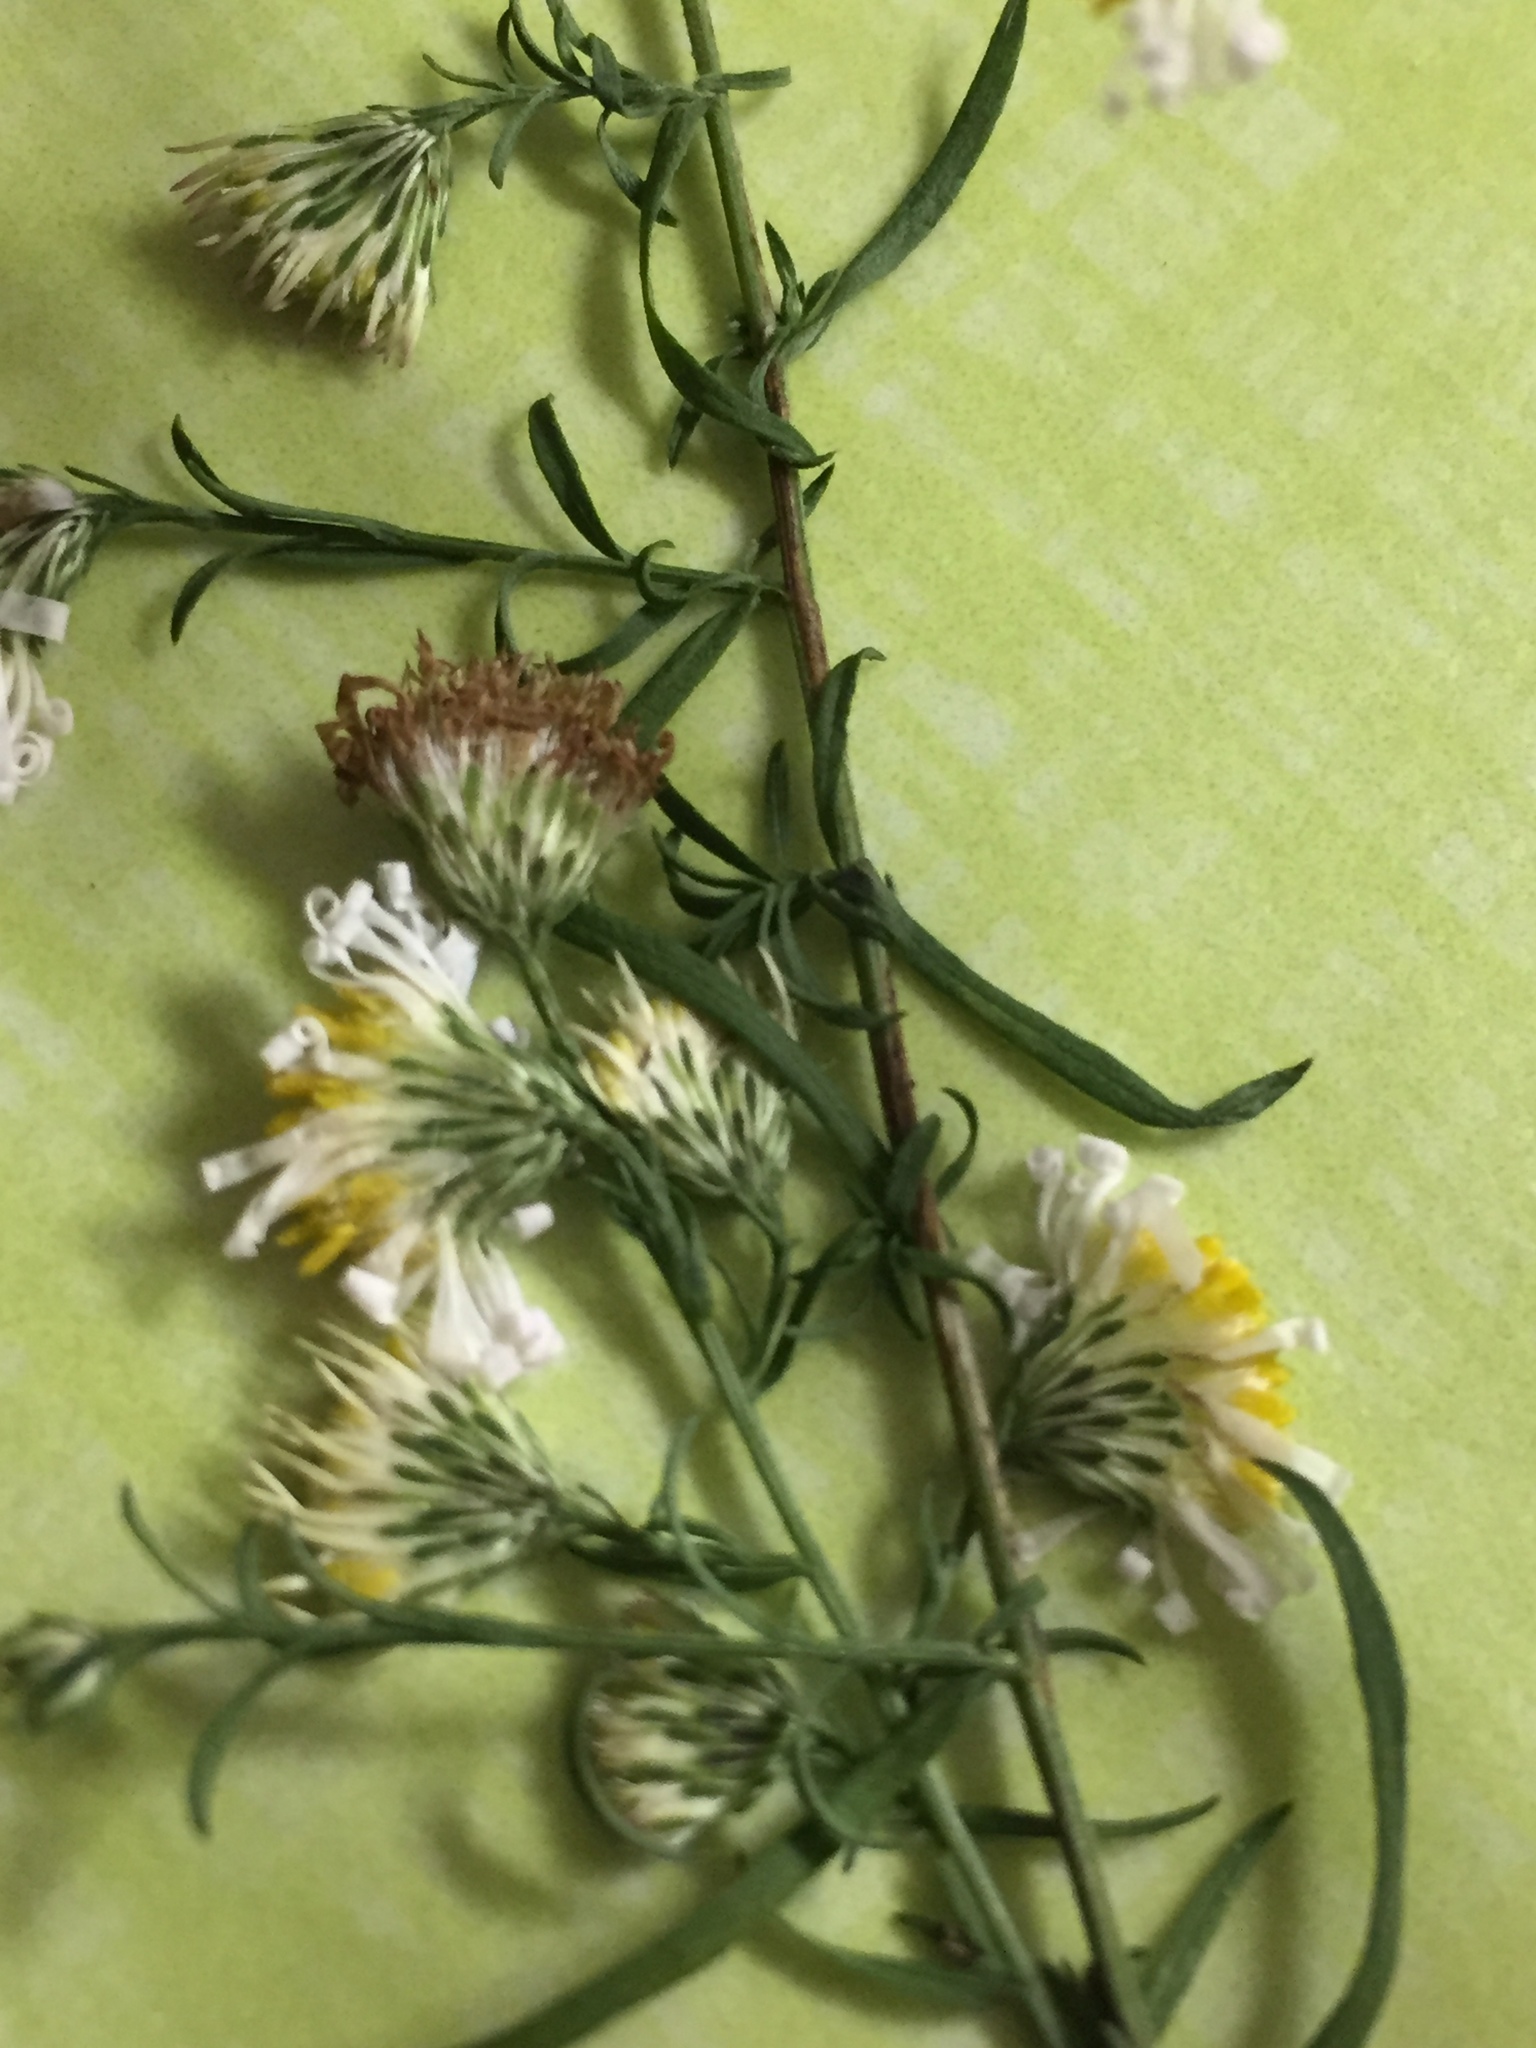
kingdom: Plantae
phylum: Tracheophyta
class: Magnoliopsida
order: Asterales
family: Asteraceae
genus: Symphyotrichum
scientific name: Symphyotrichum racemosum
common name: Small white aster
